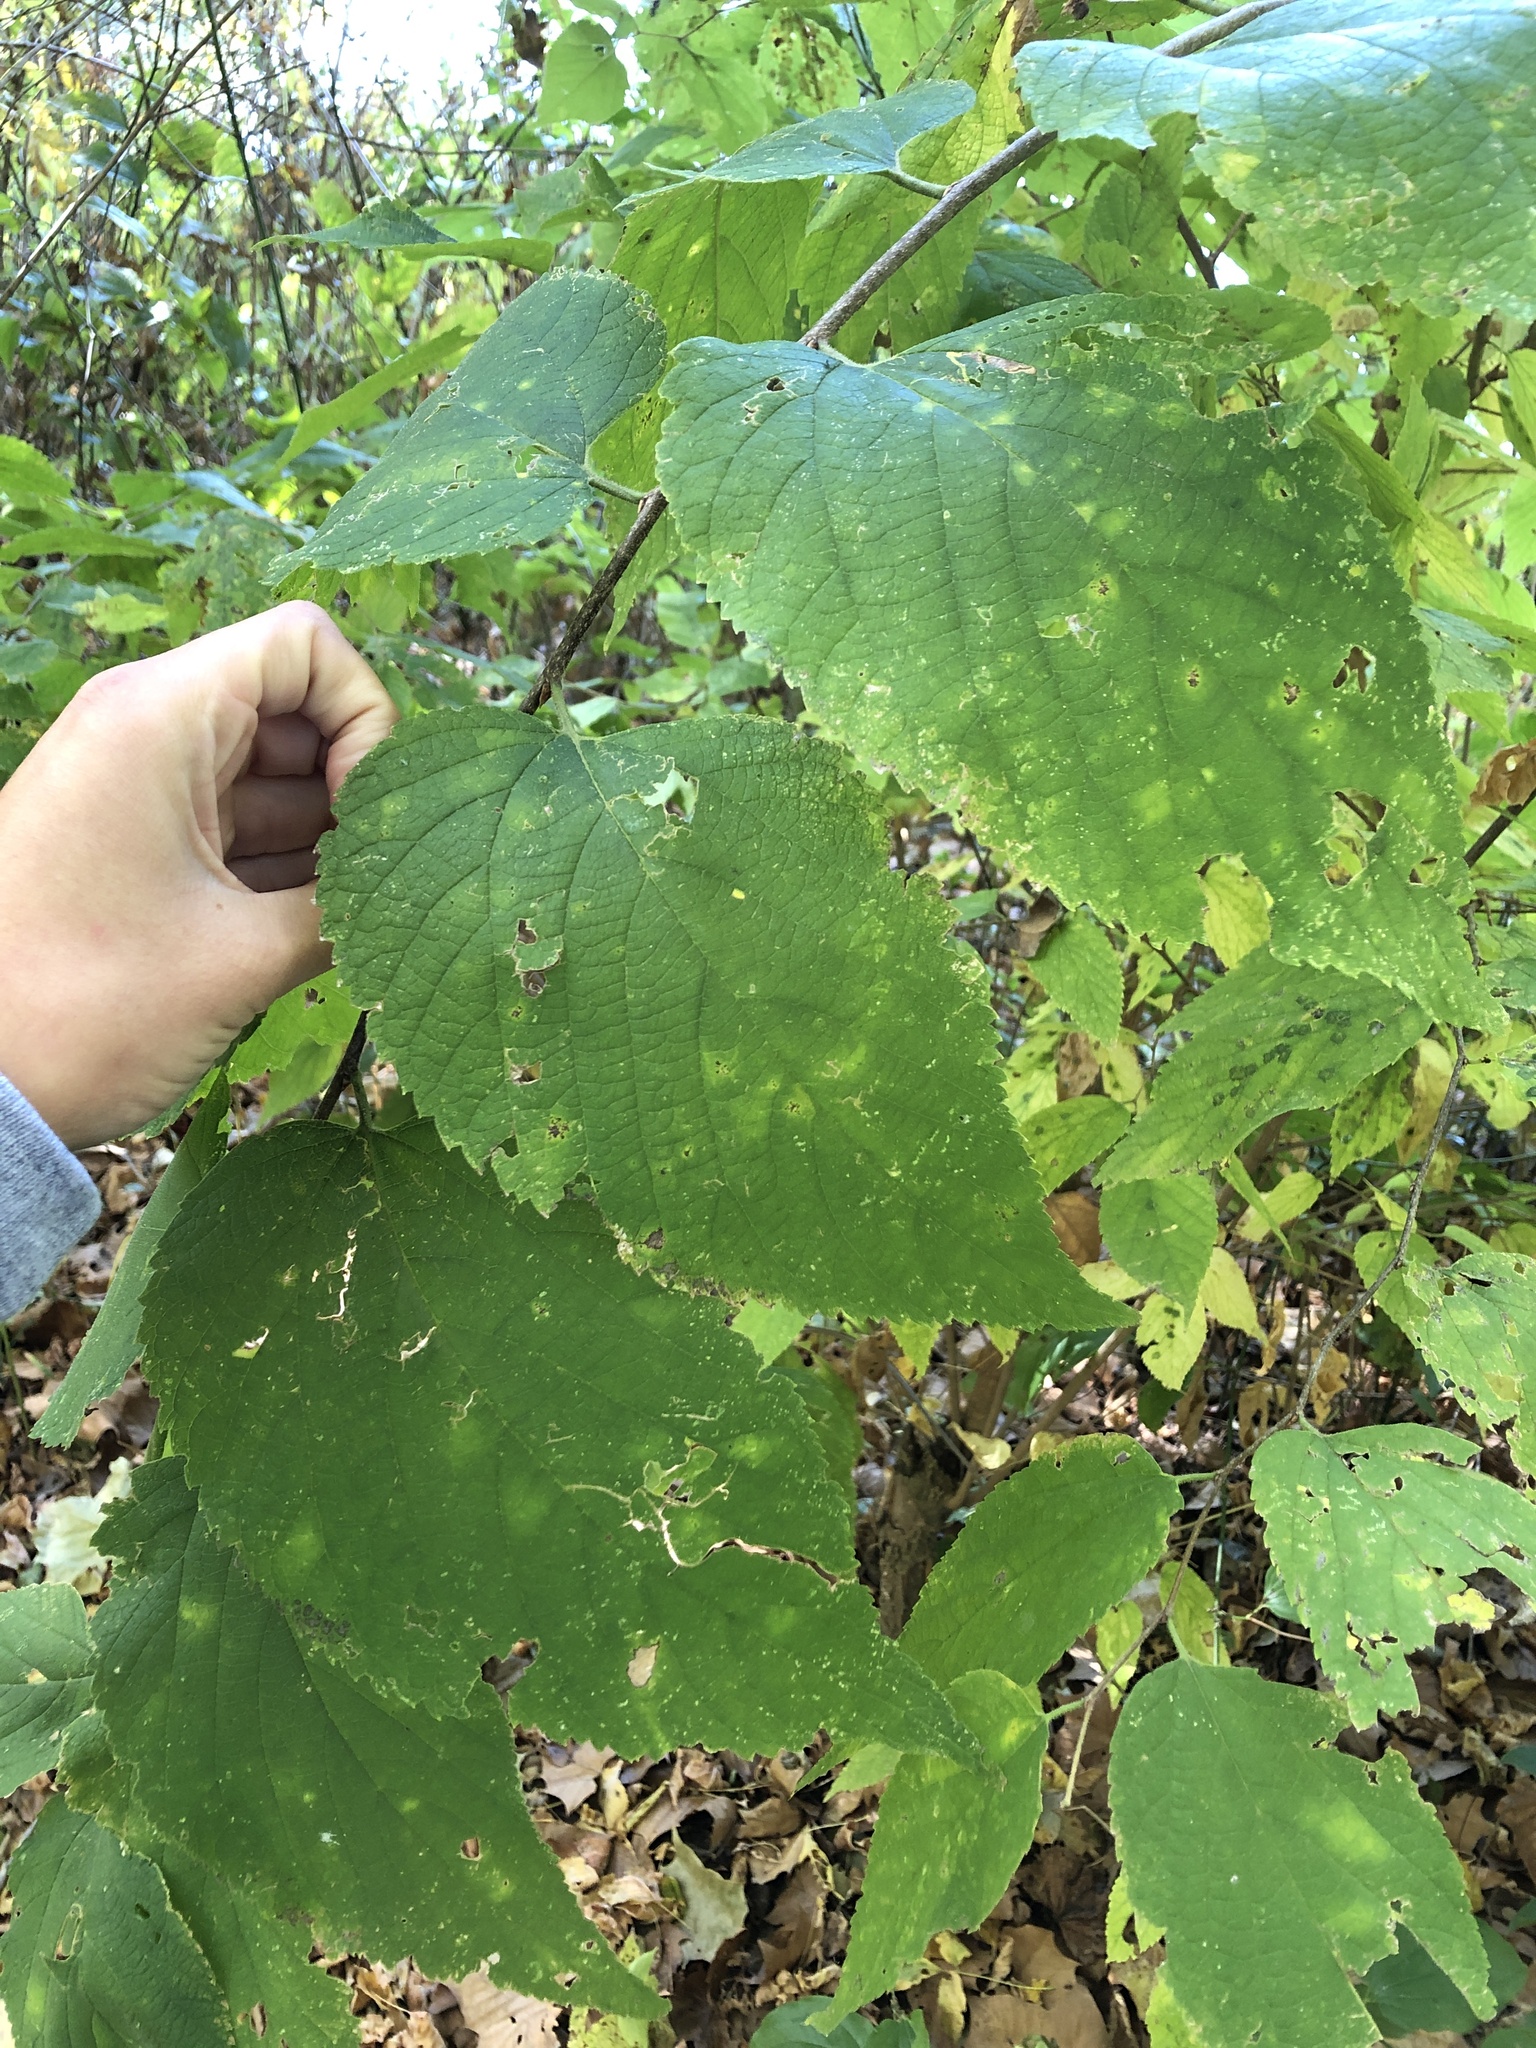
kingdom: Plantae
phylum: Tracheophyta
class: Magnoliopsida
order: Rosales
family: Cannabaceae
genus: Celtis
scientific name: Celtis occidentalis
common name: Common hackberry
